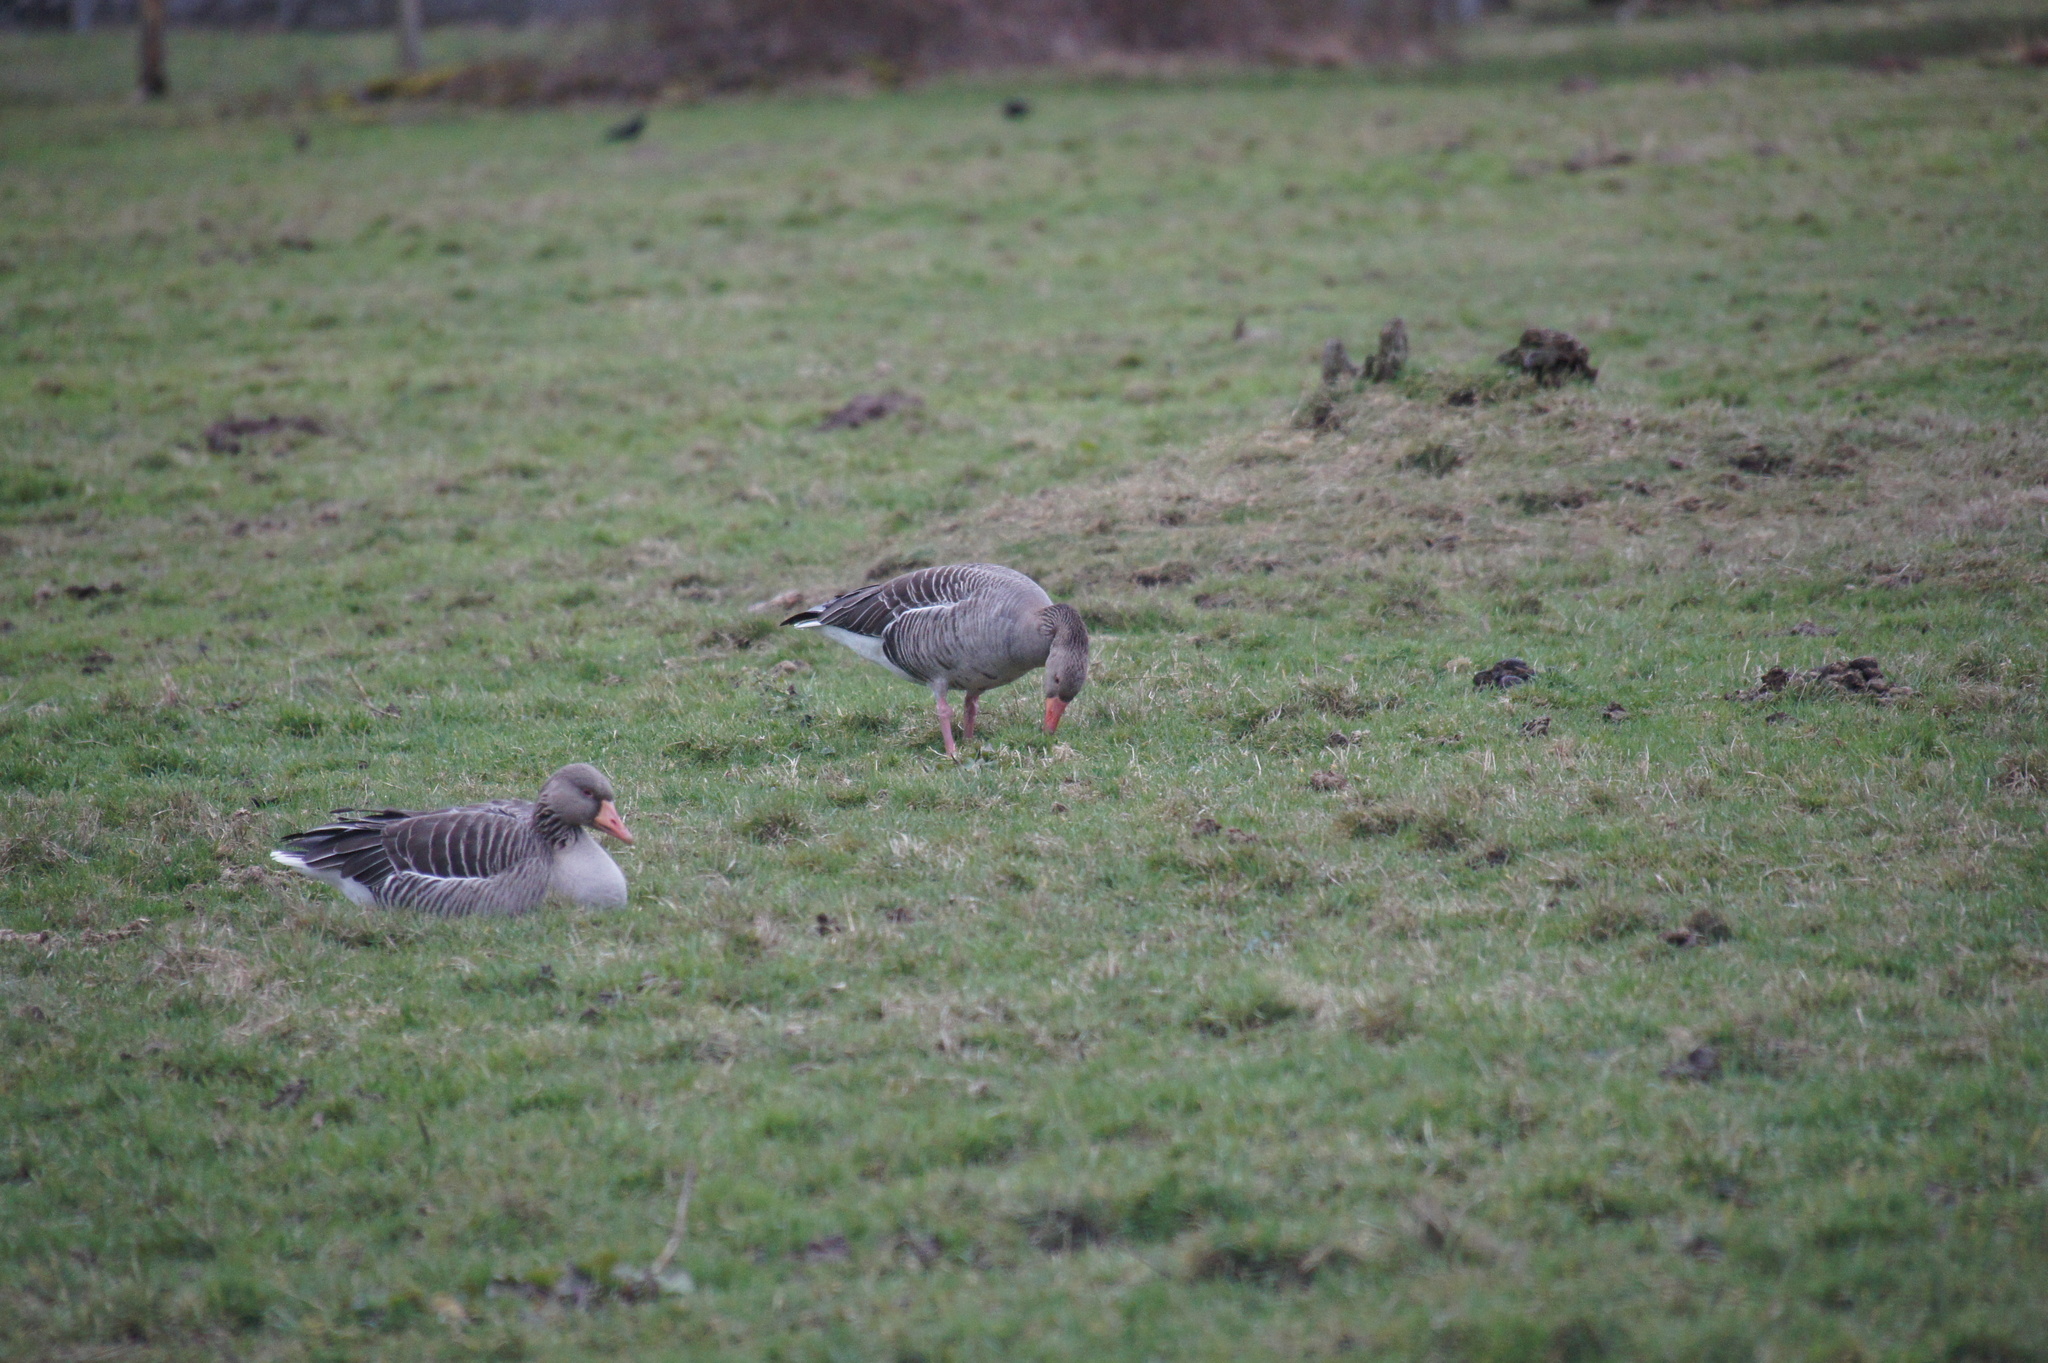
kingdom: Animalia
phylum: Chordata
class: Aves
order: Anseriformes
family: Anatidae
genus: Anser
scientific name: Anser anser
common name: Greylag goose
